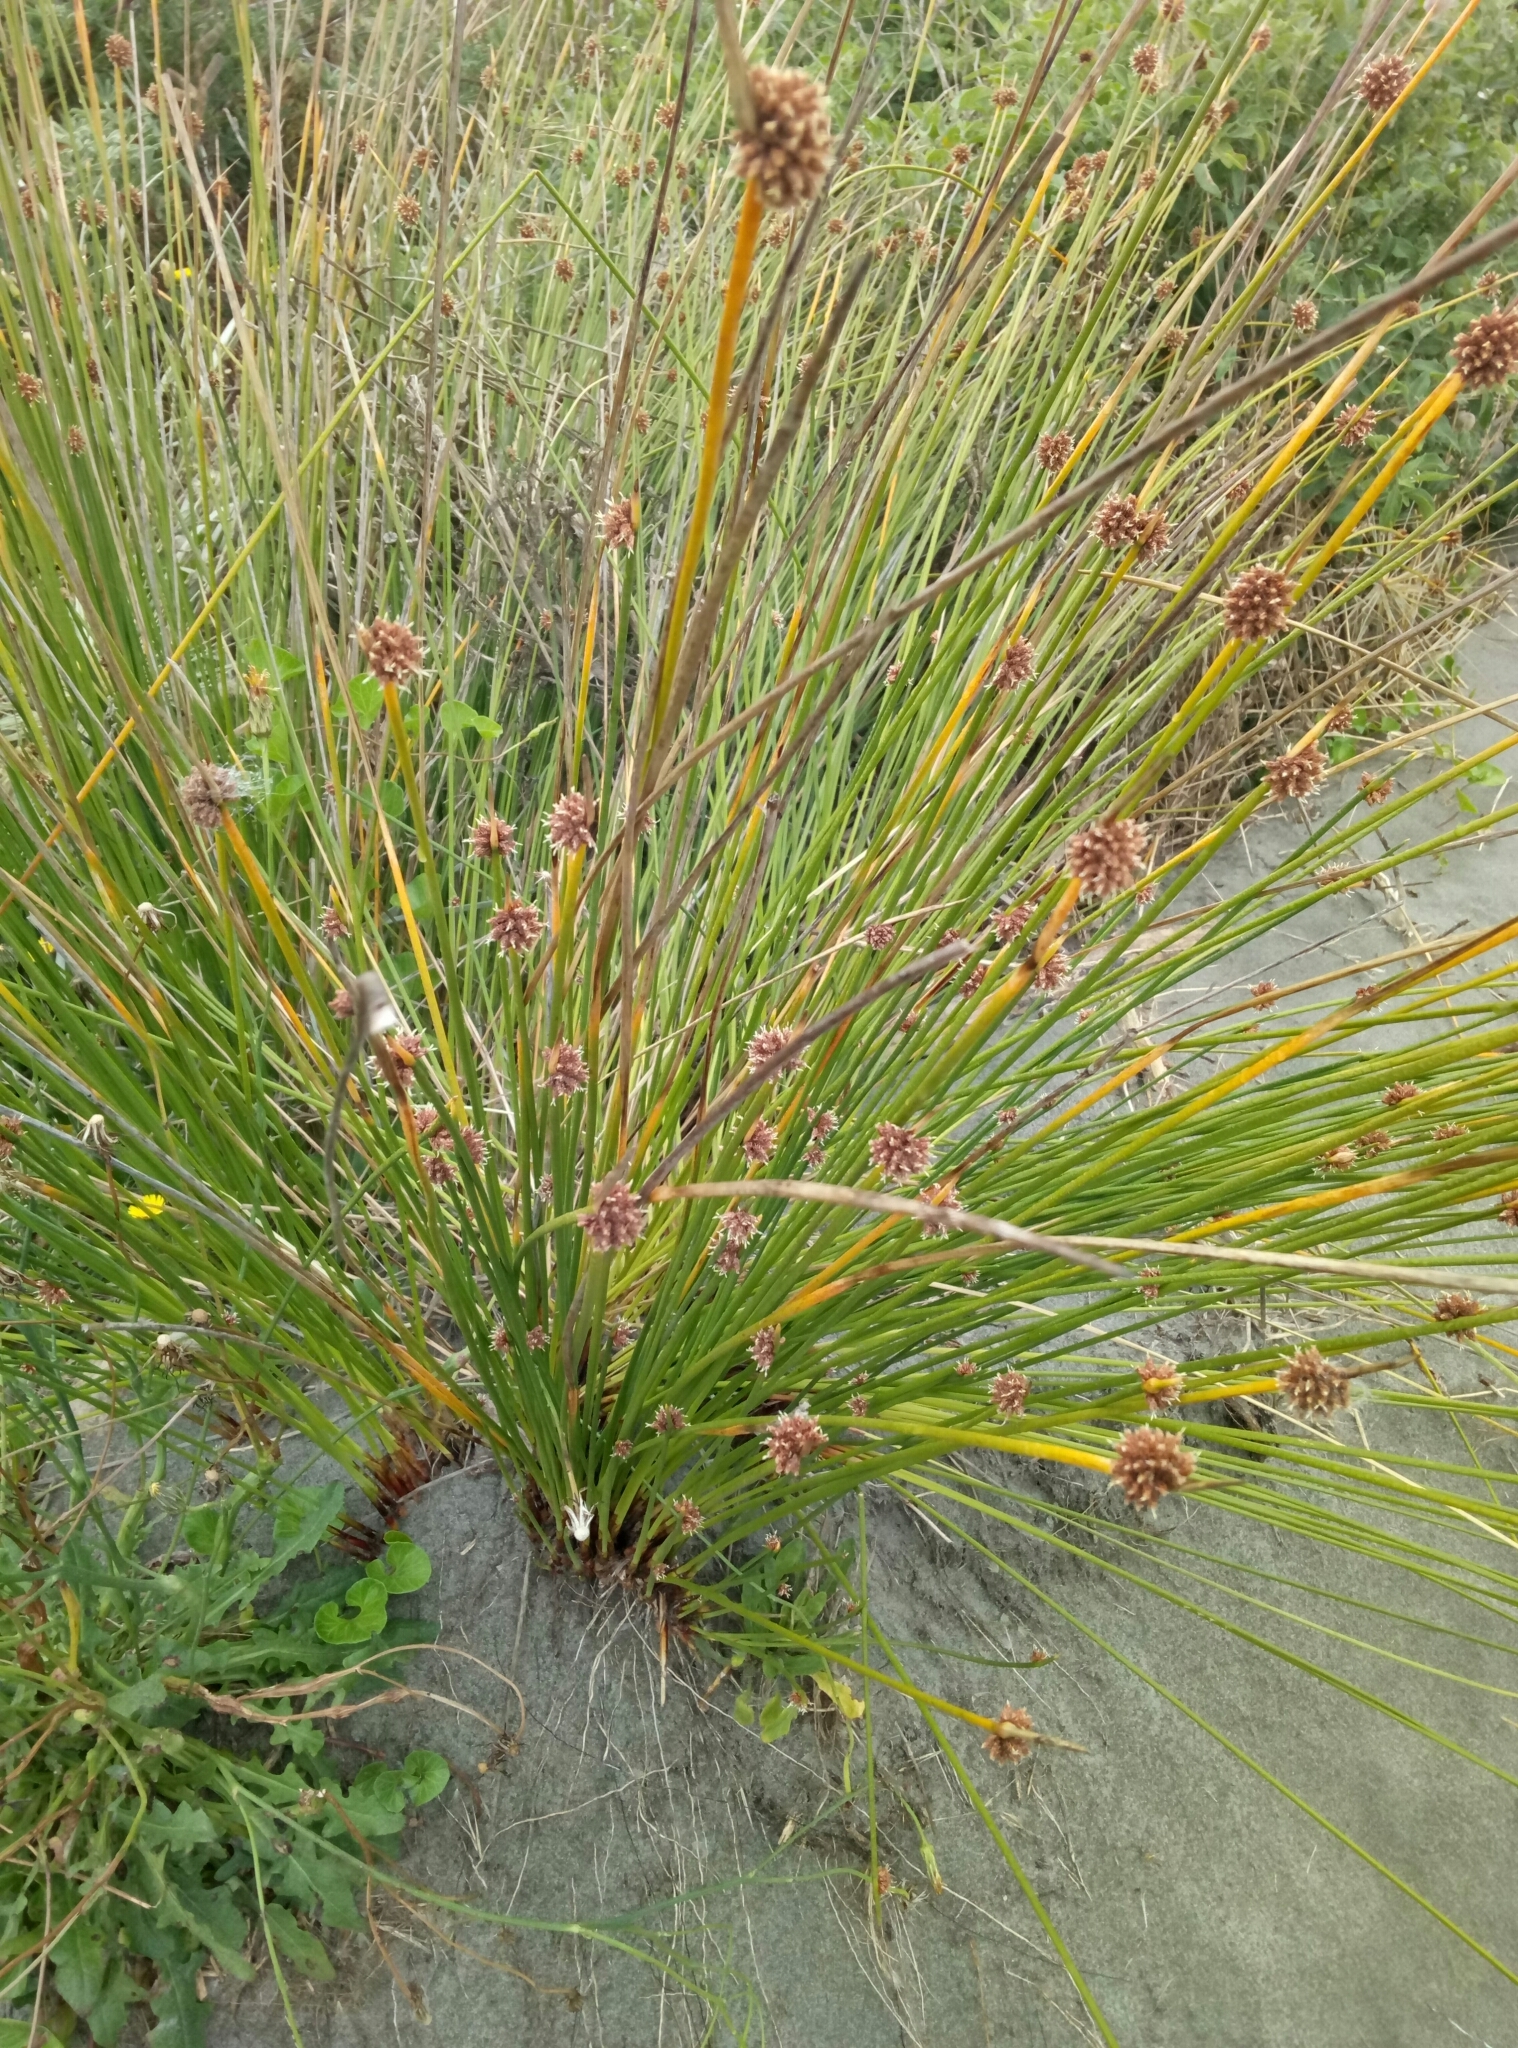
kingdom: Plantae
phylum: Tracheophyta
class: Liliopsida
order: Poales
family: Cyperaceae
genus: Ficinia
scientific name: Ficinia nodosa
